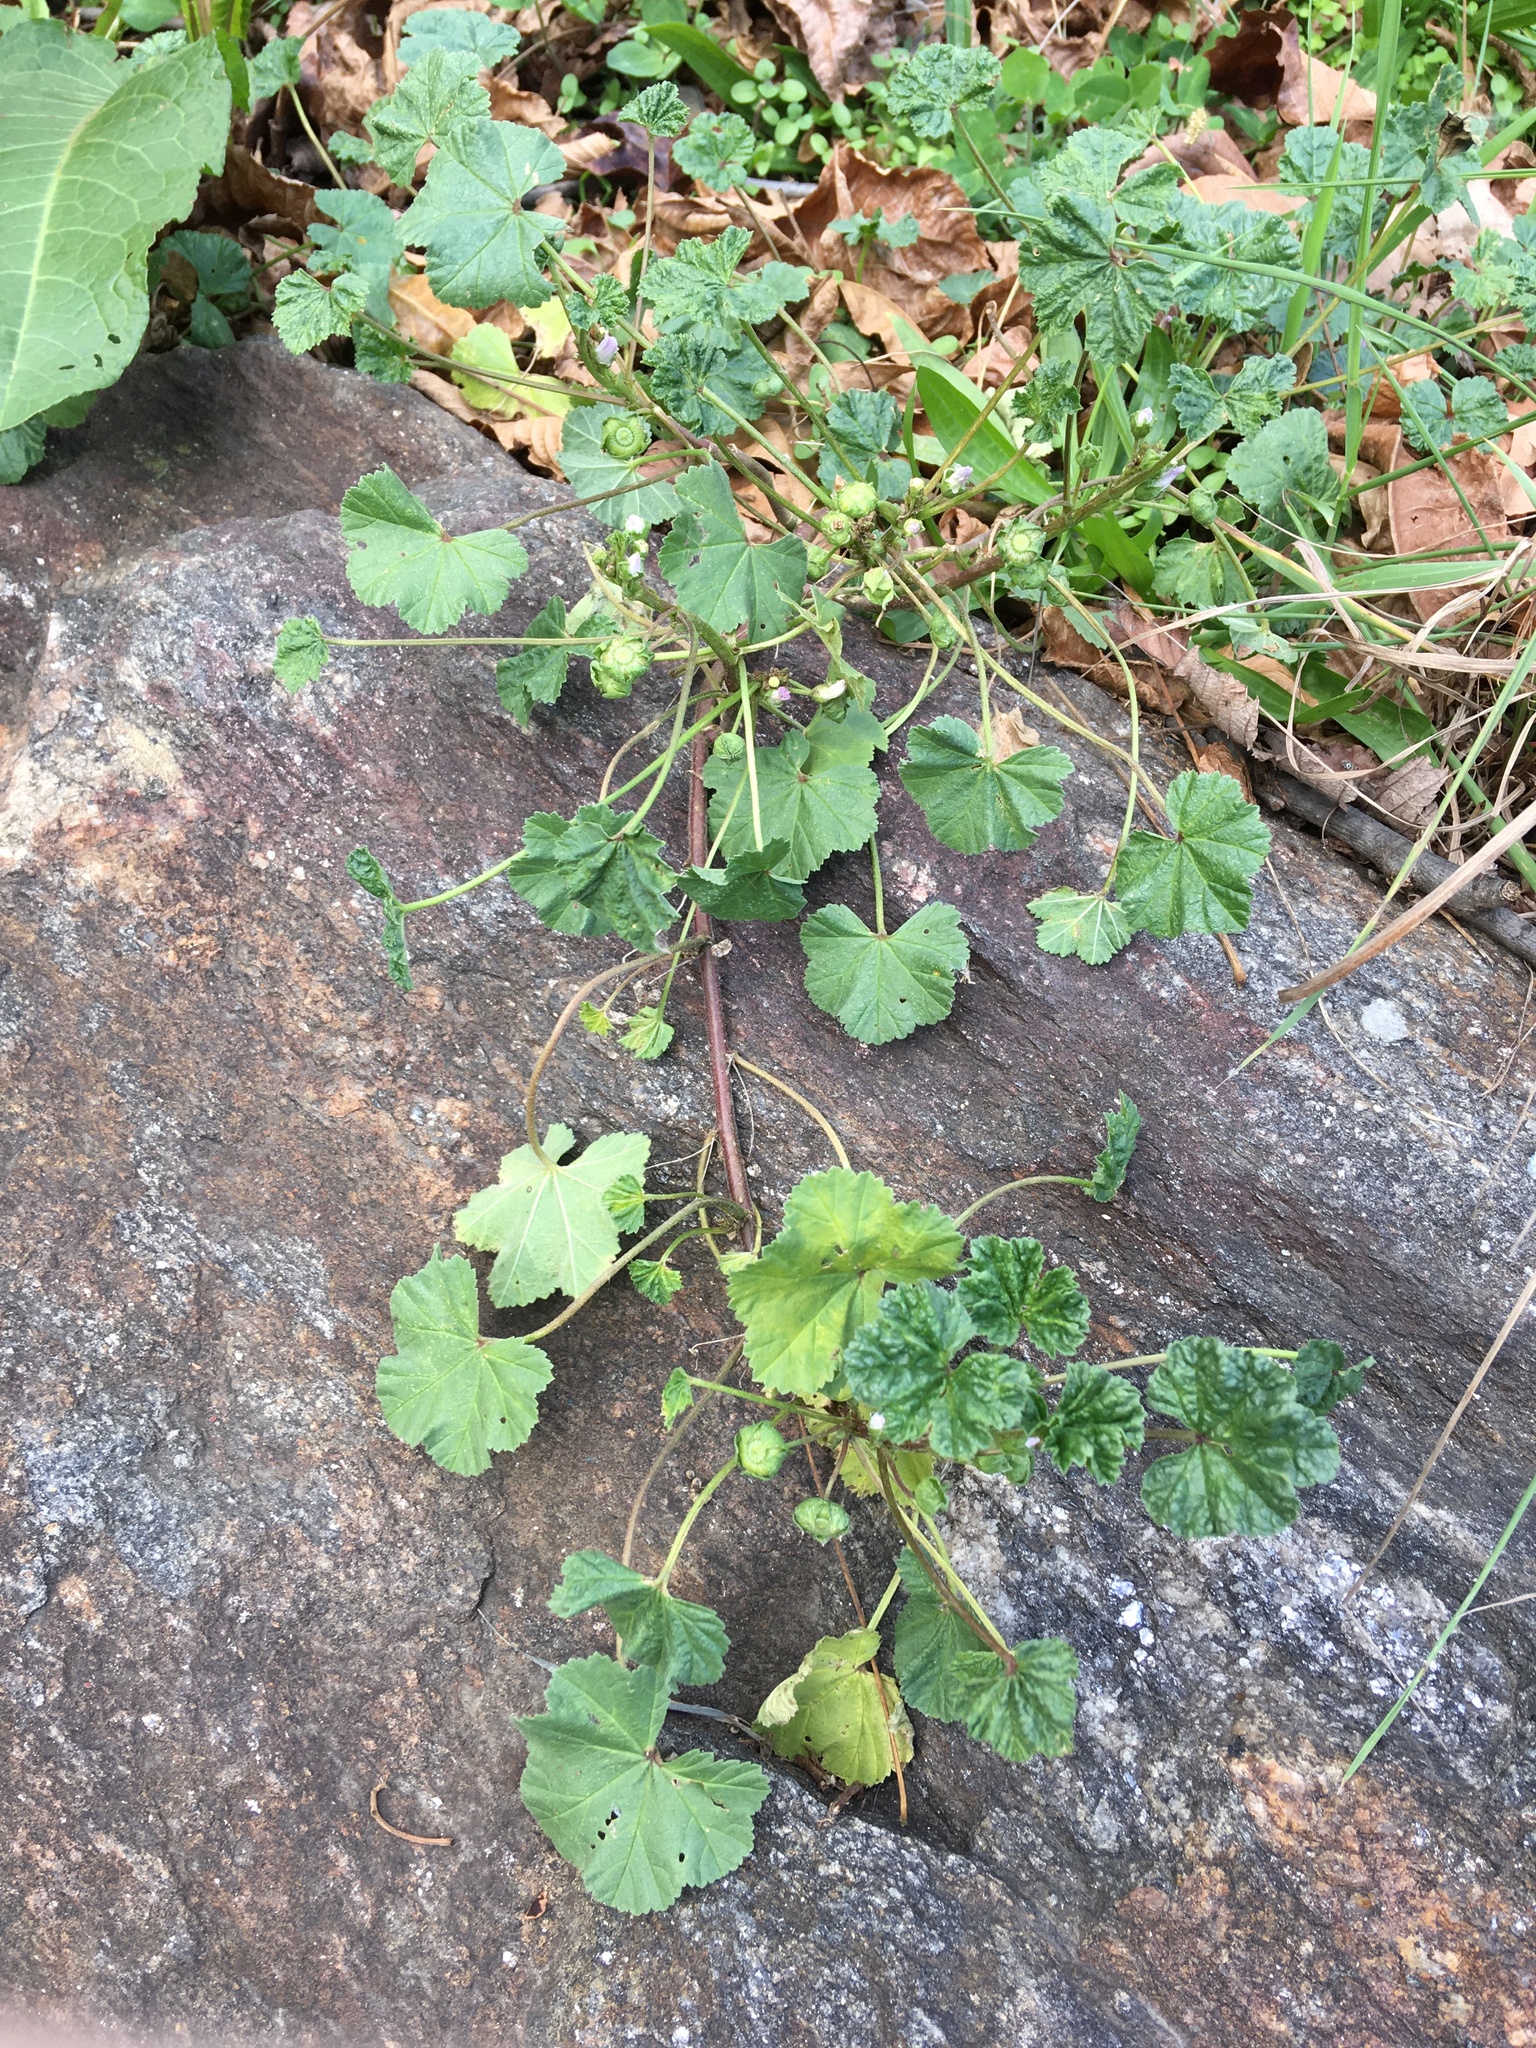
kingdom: Plantae
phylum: Tracheophyta
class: Magnoliopsida
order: Malvales
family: Malvaceae
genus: Malva
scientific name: Malva neglecta
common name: Common mallow
